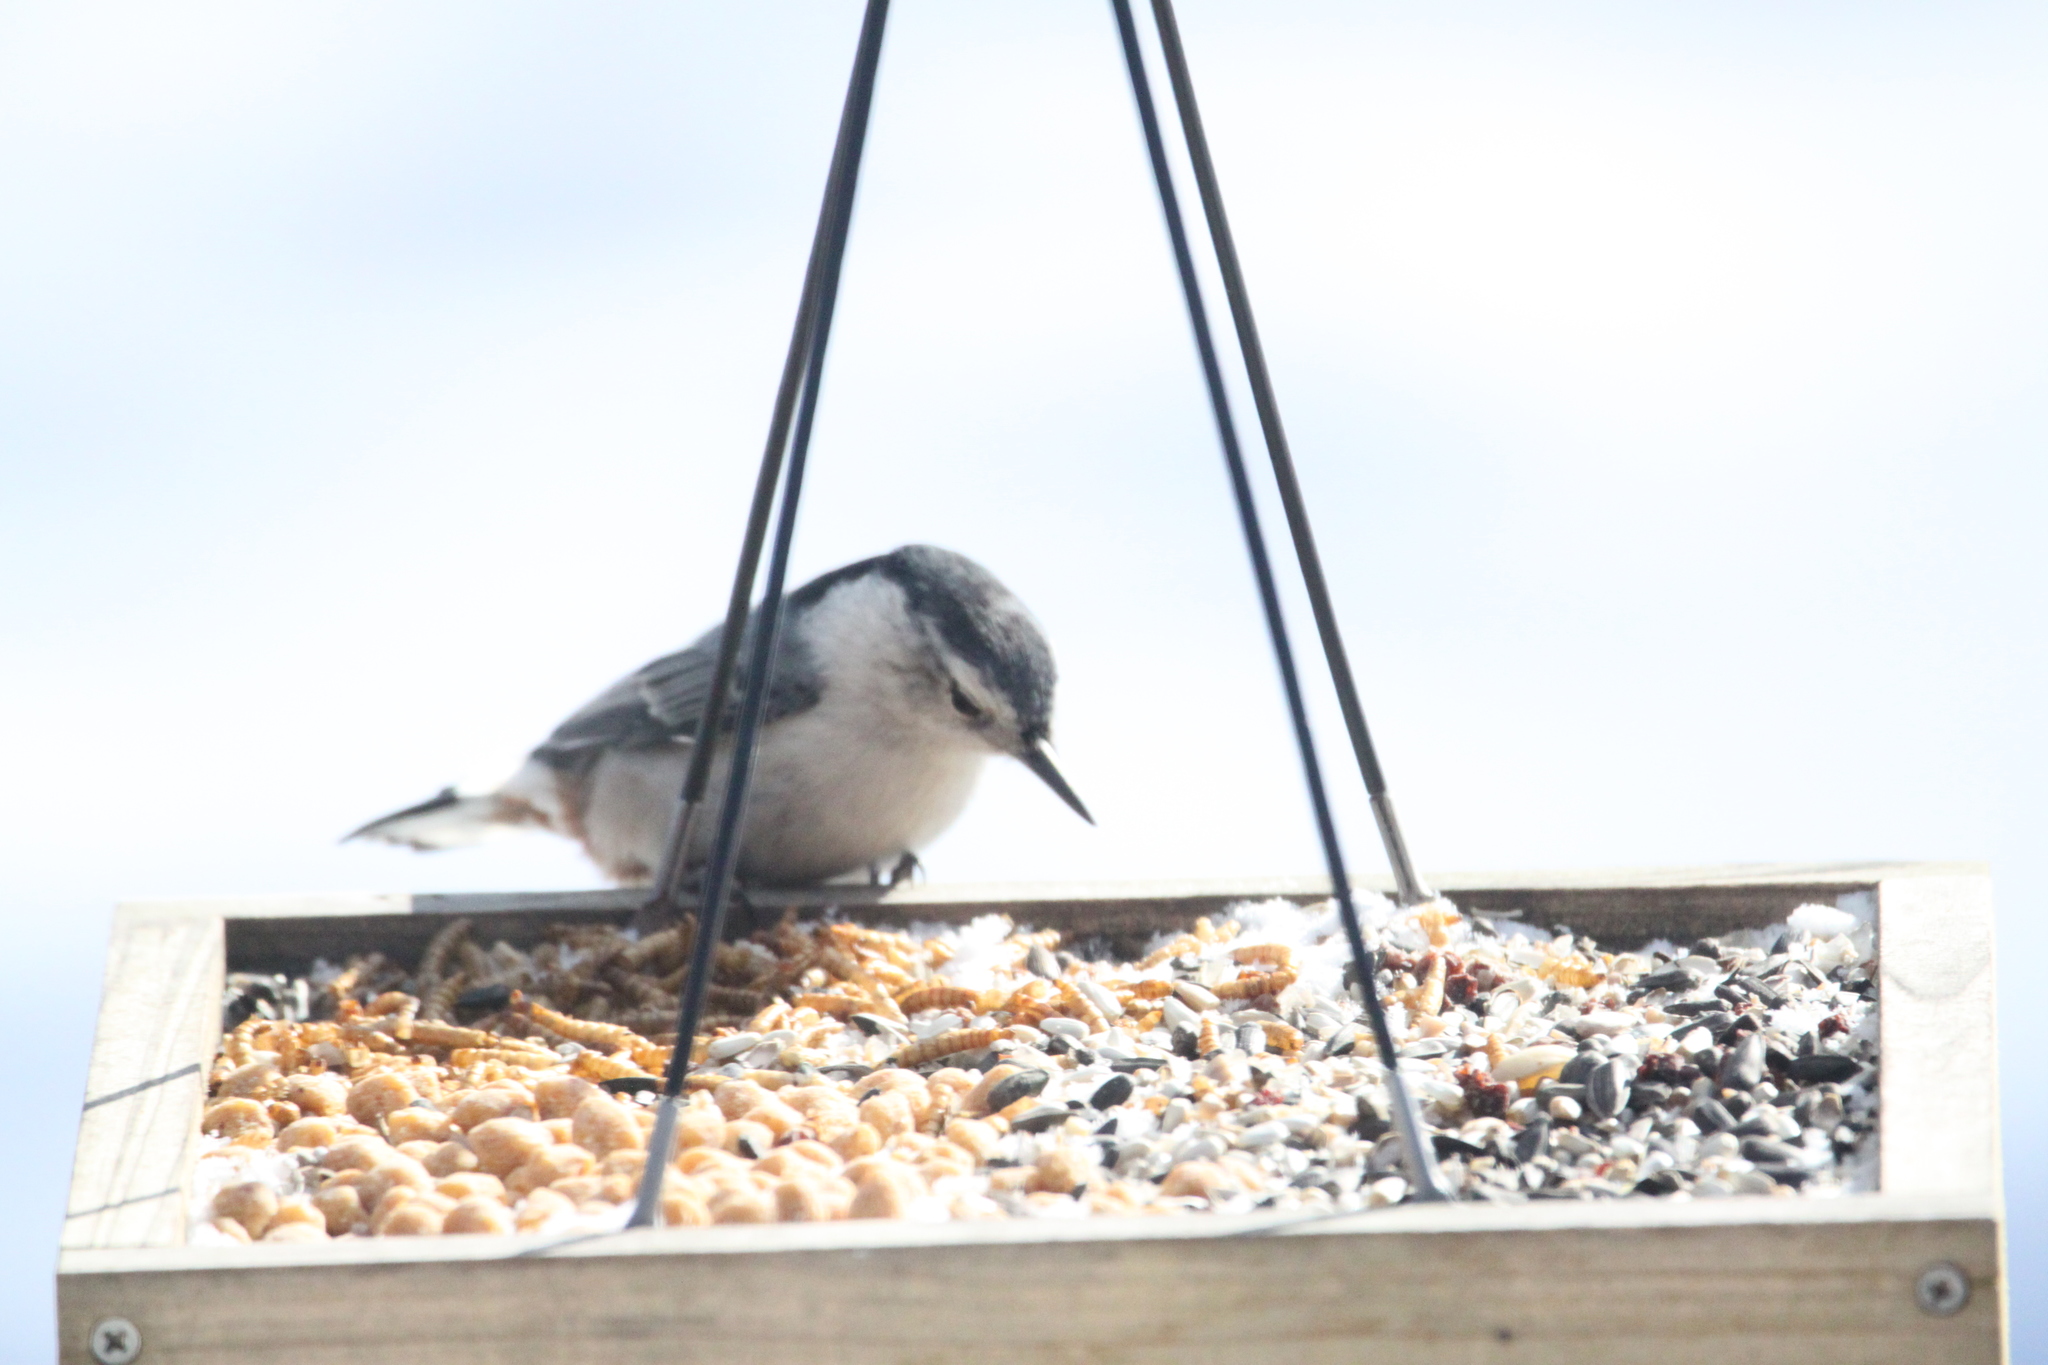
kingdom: Animalia
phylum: Chordata
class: Aves
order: Passeriformes
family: Sittidae
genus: Sitta
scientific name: Sitta carolinensis
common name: White-breasted nuthatch
